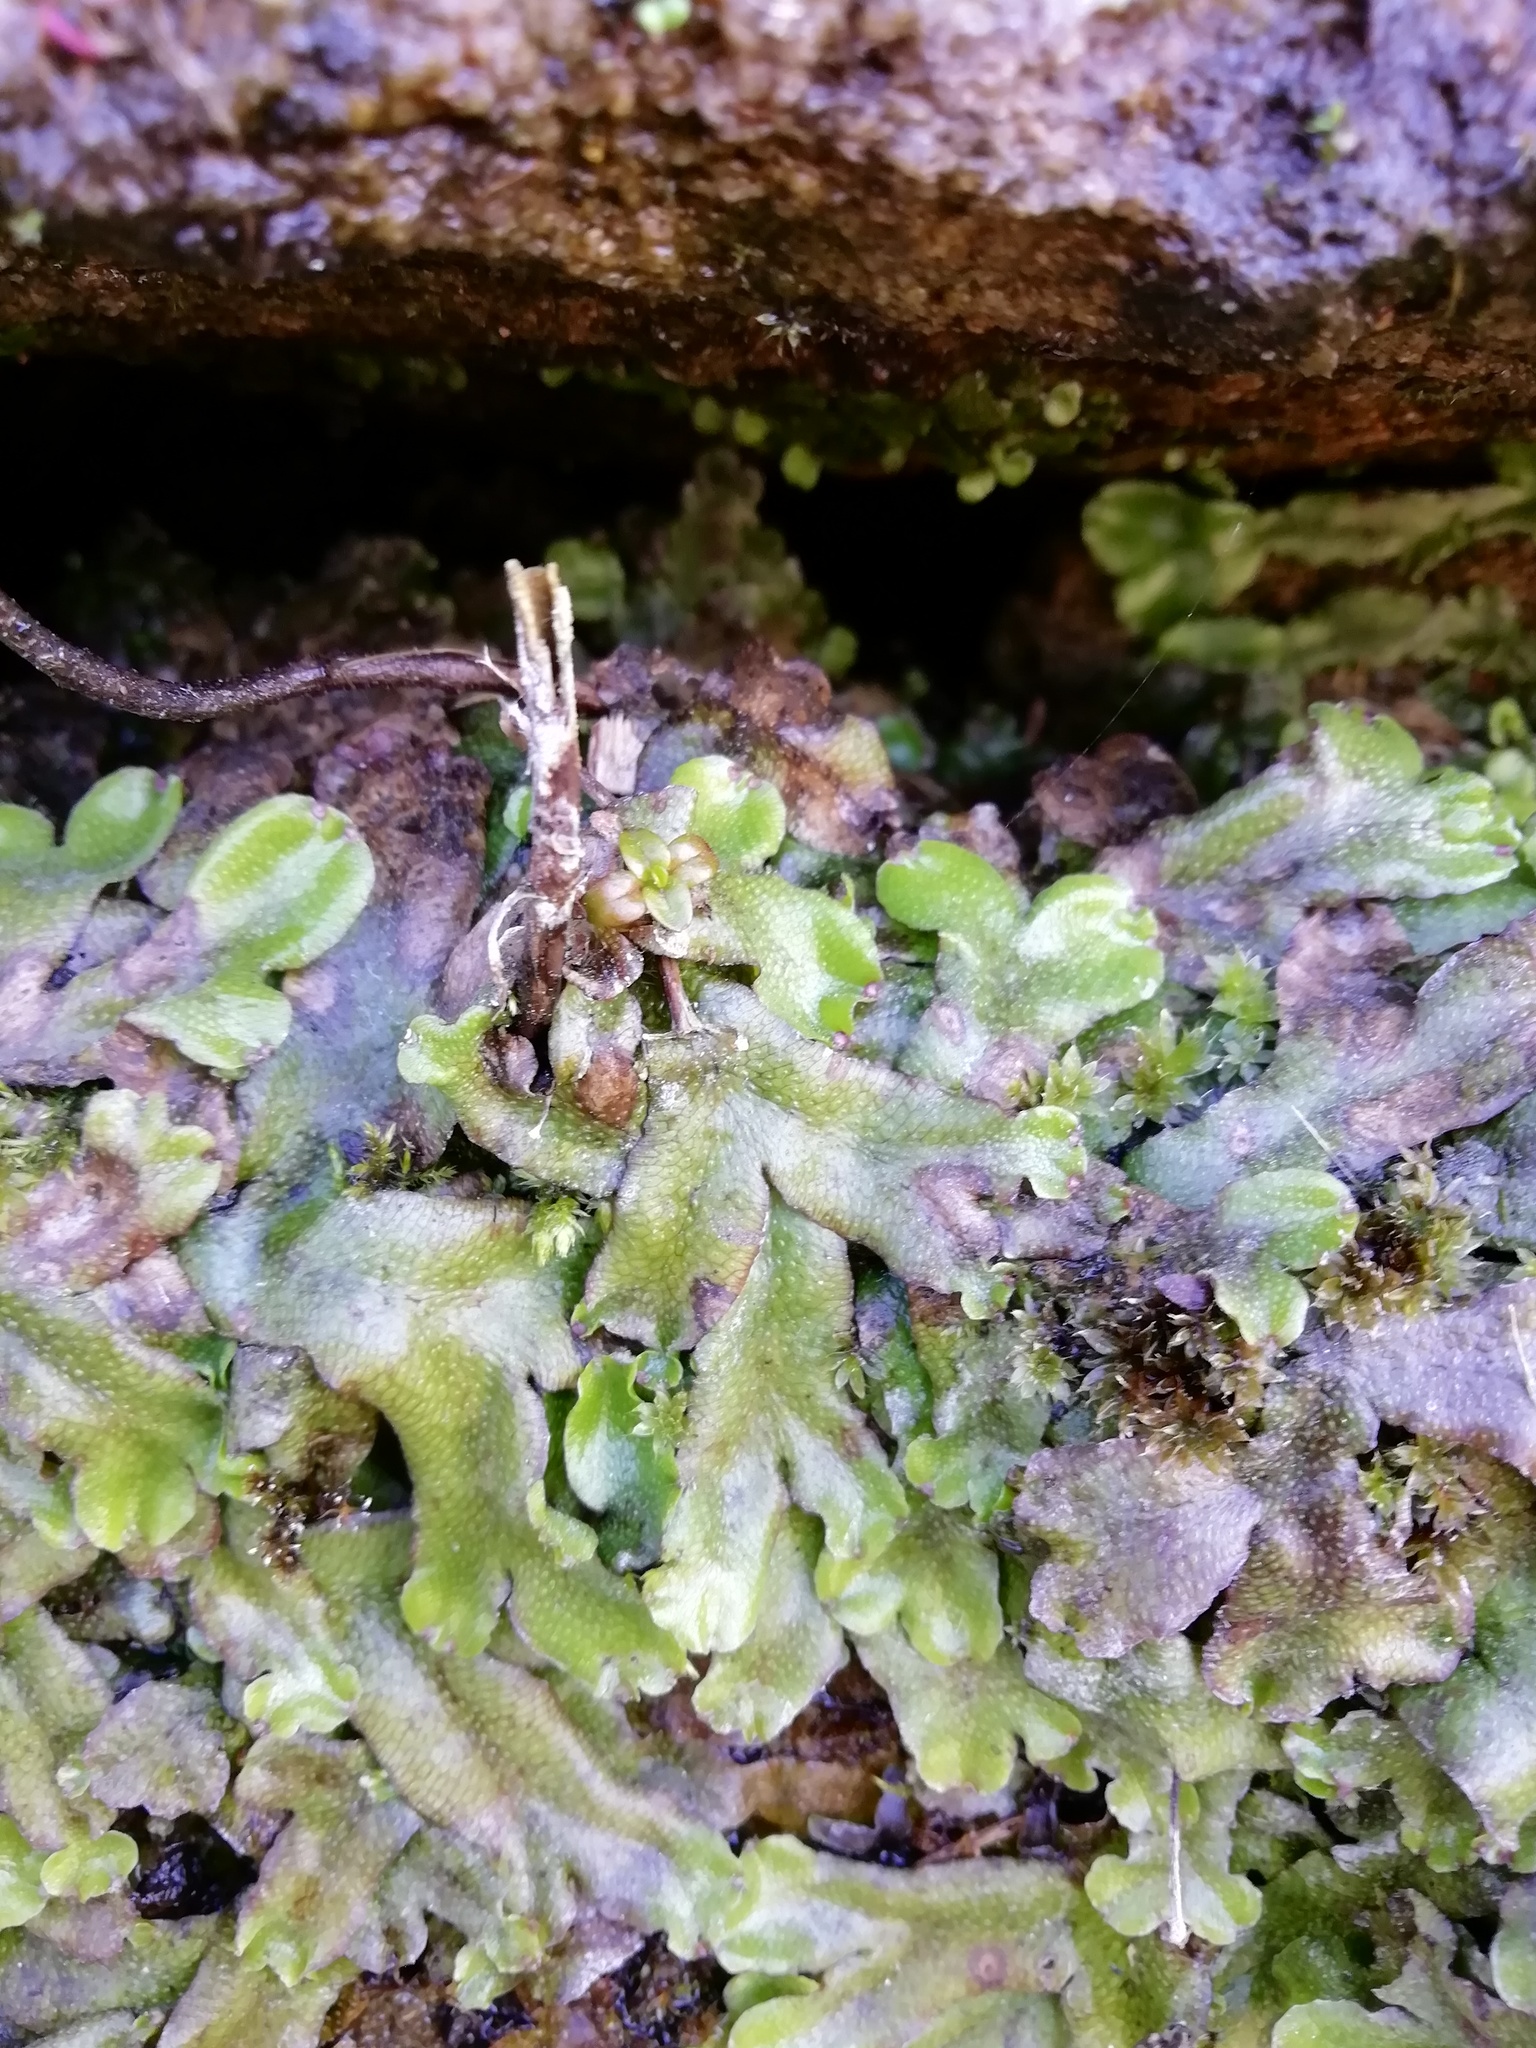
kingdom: Plantae
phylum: Marchantiophyta
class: Marchantiopsida
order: Marchantiales
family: Conocephalaceae
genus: Conocephalum
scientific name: Conocephalum conicum
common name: Great scented liverwort
